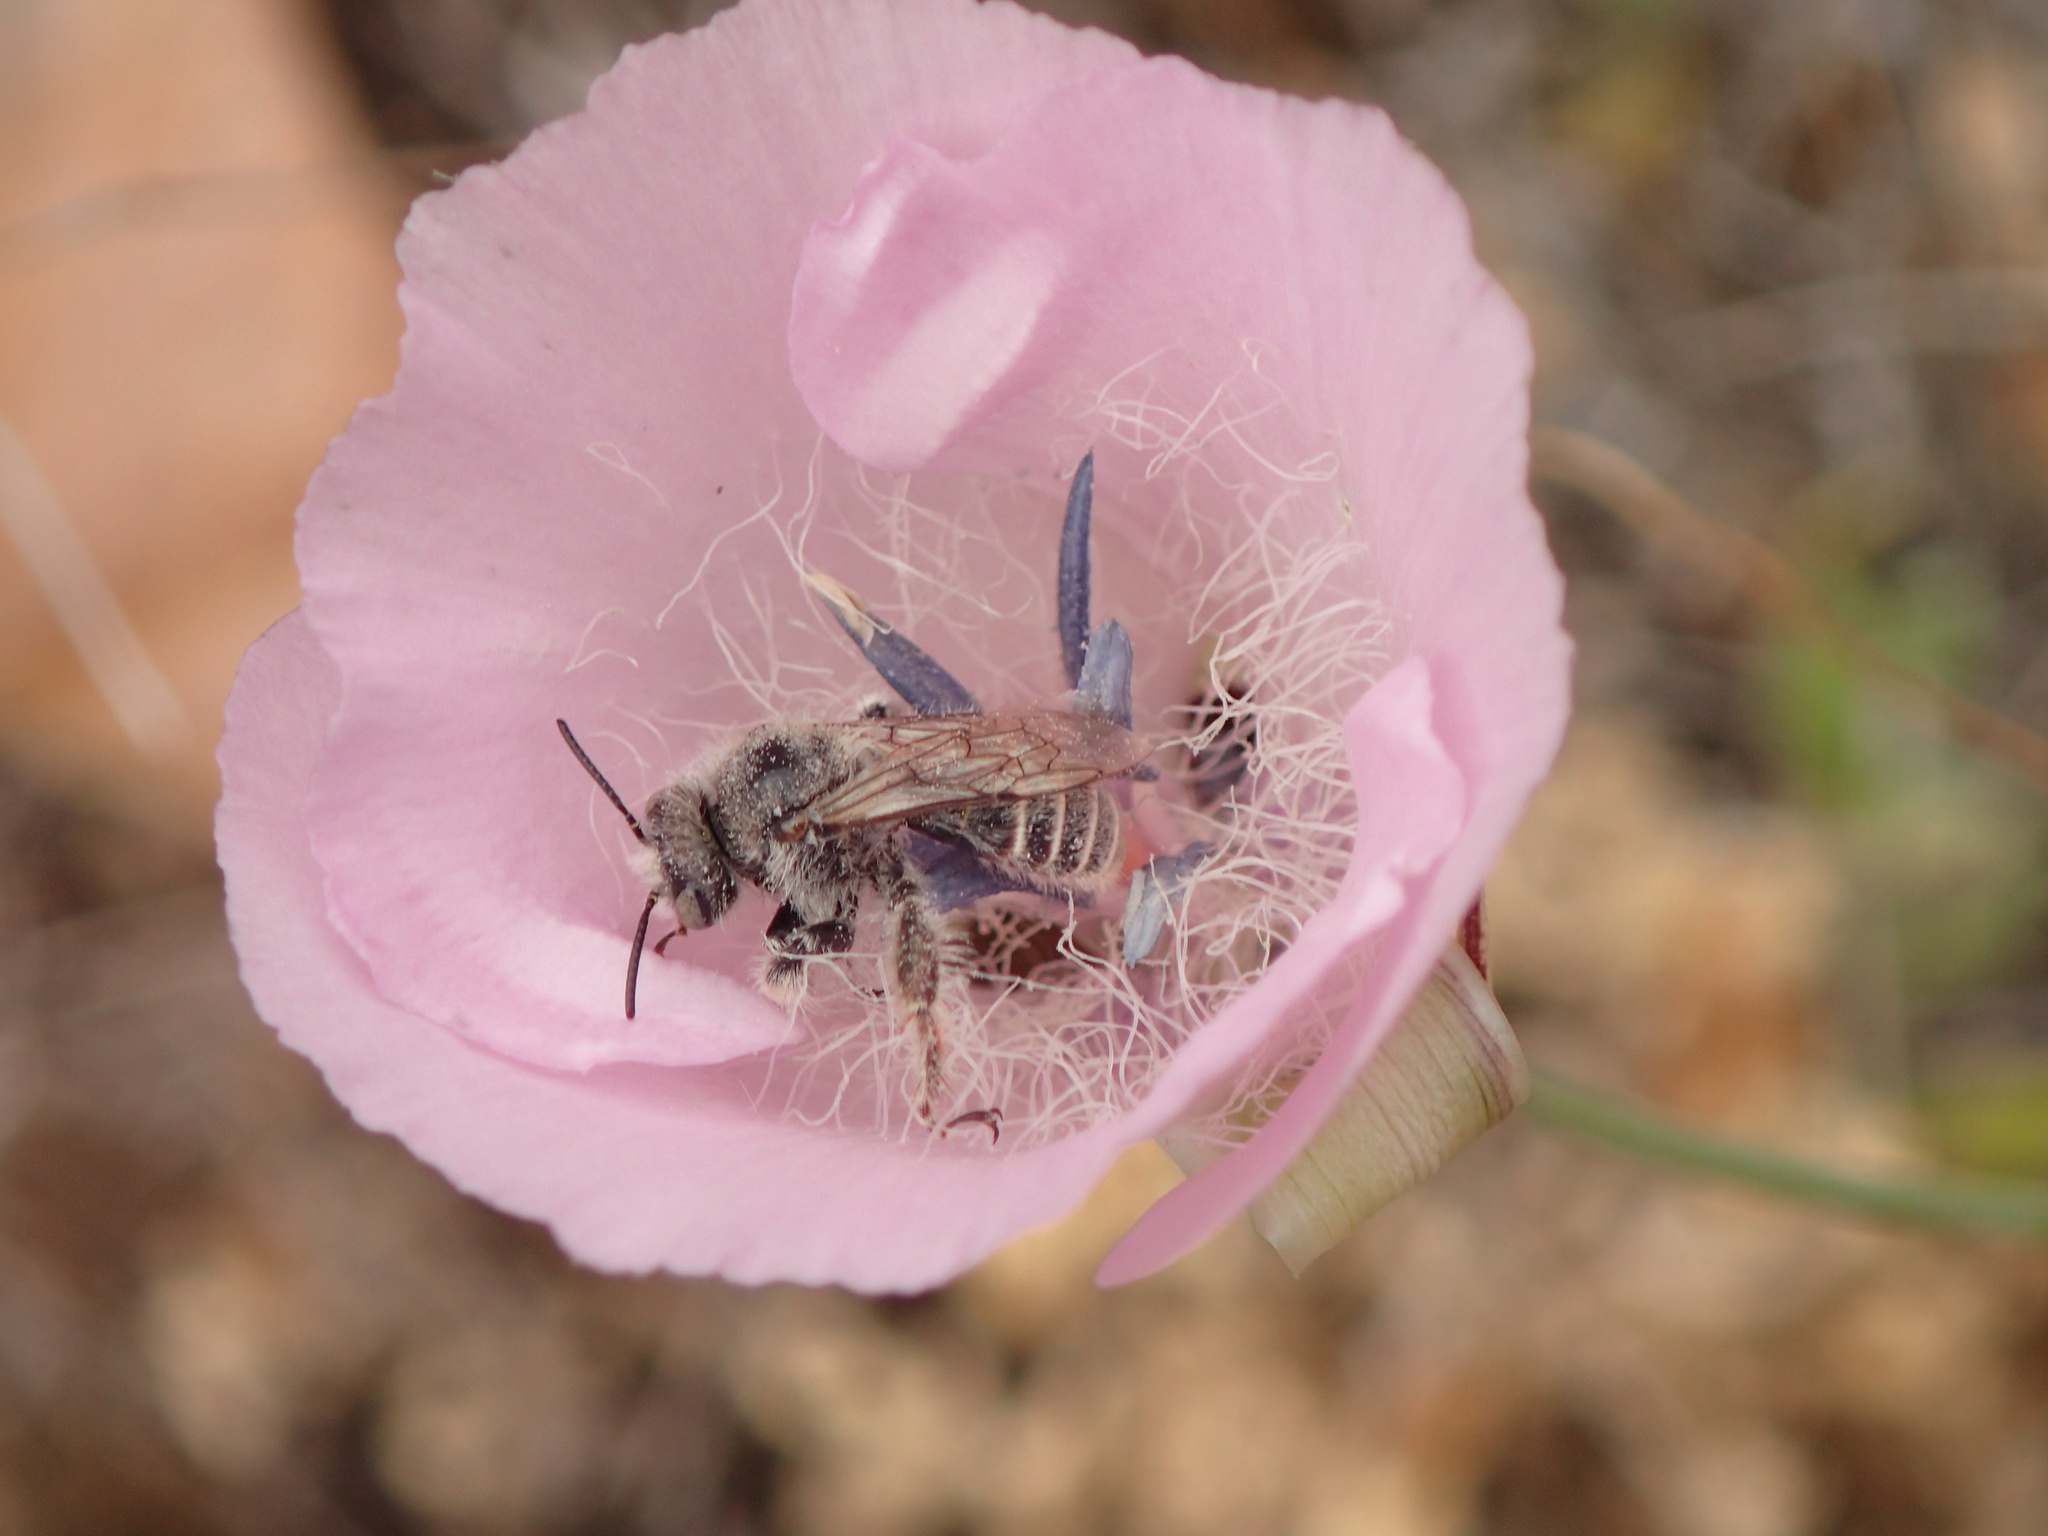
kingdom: Plantae
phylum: Tracheophyta
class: Liliopsida
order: Liliales
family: Liliaceae
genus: Calochortus
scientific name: Calochortus splendens
